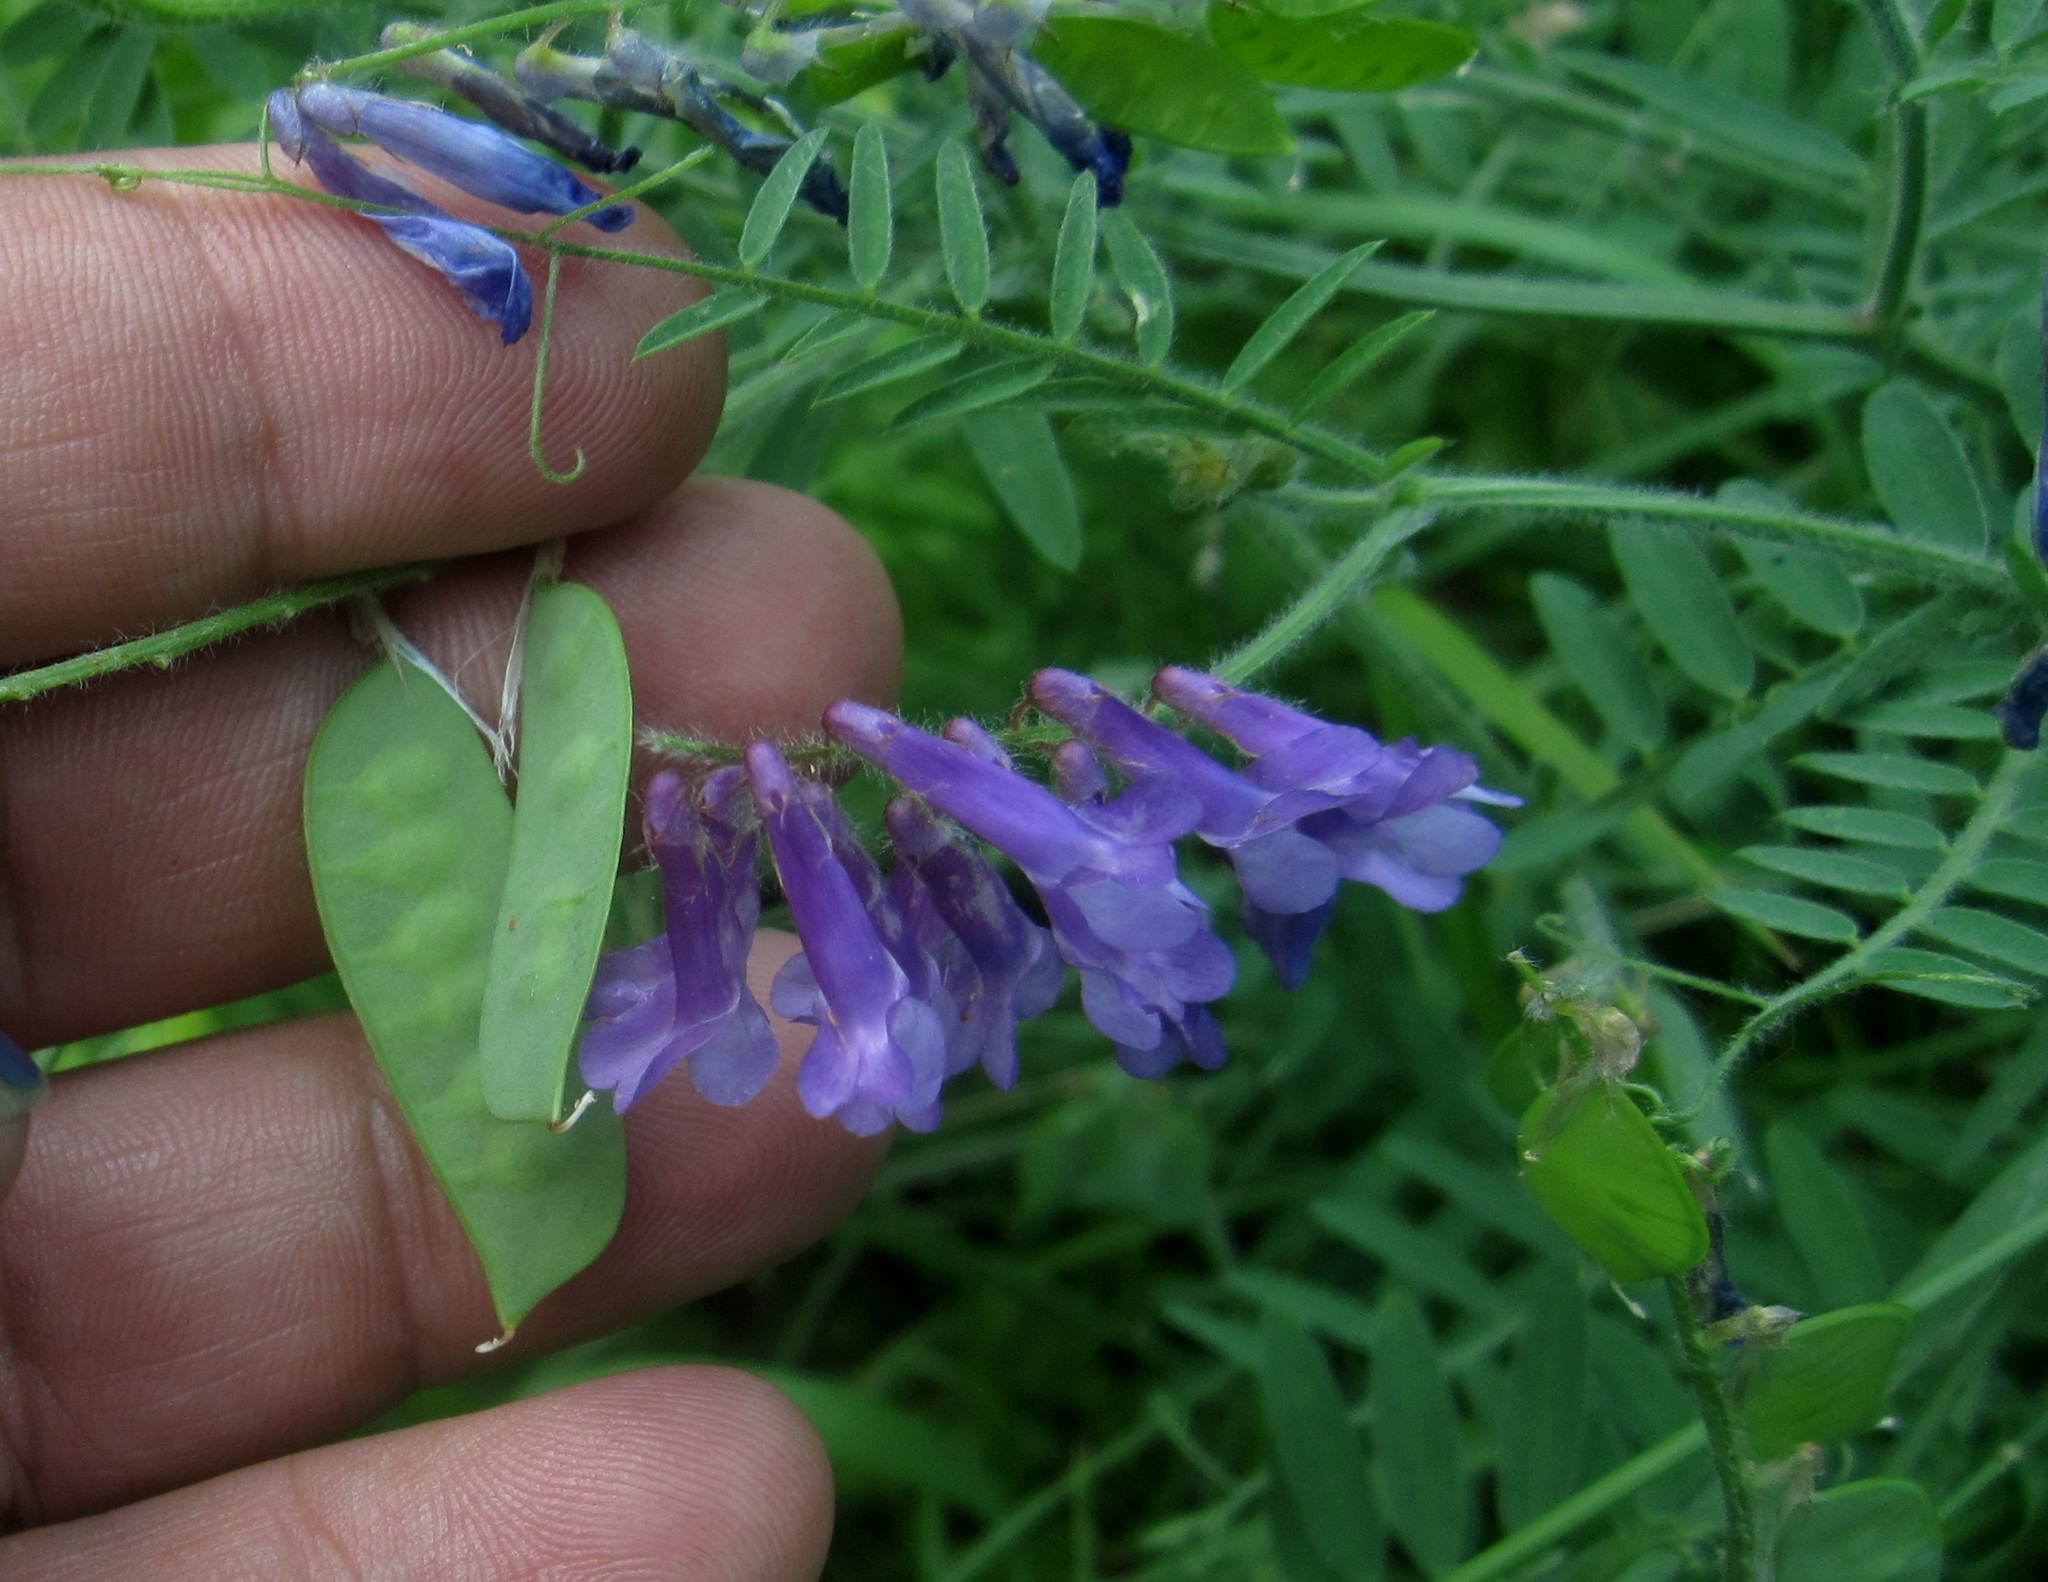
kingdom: Plantae
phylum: Tracheophyta
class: Magnoliopsida
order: Fabales
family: Fabaceae
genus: Vicia
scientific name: Vicia villosa
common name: Fodder vetch
